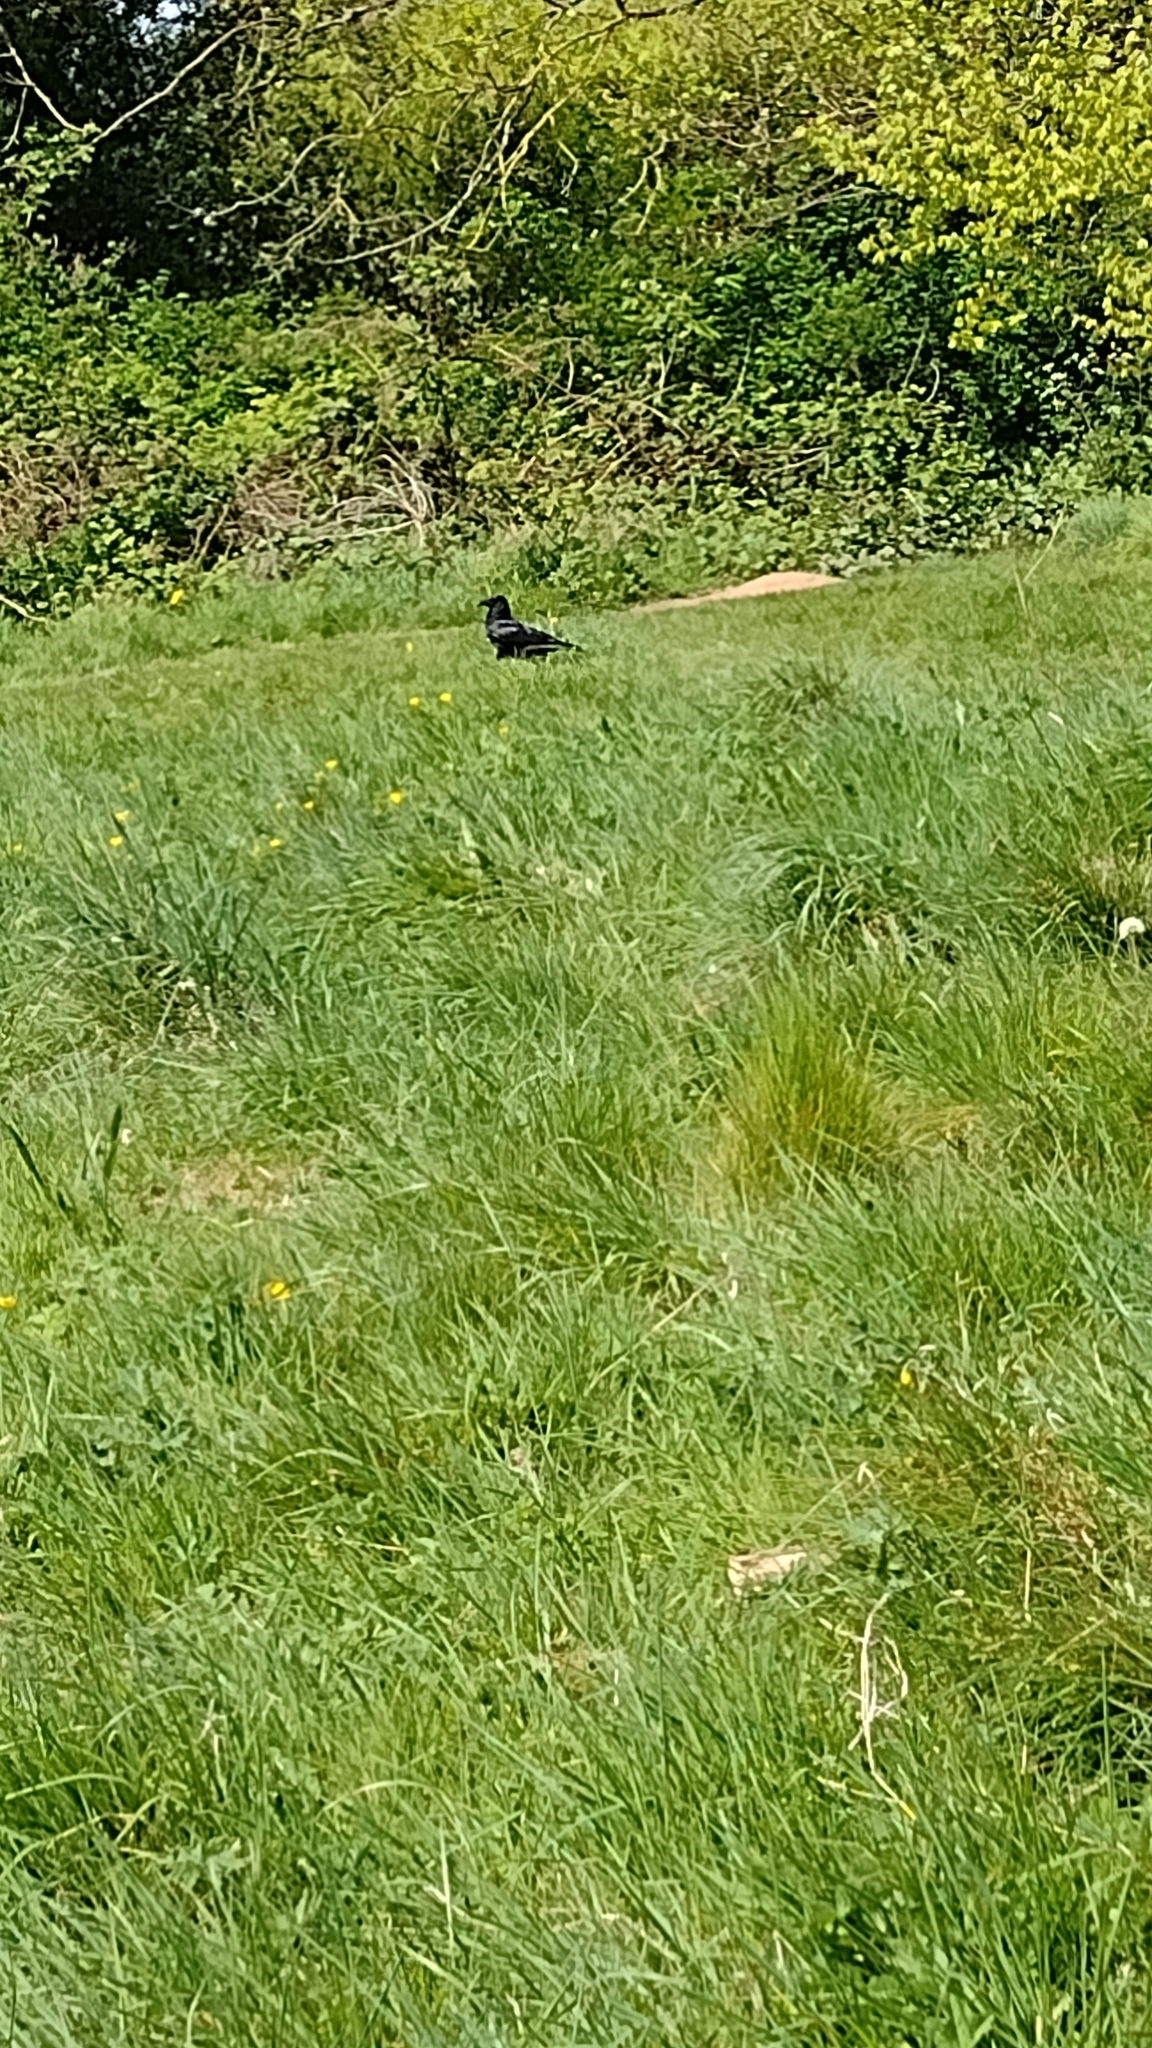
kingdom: Animalia
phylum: Chordata
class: Aves
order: Passeriformes
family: Corvidae
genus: Corvus
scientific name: Corvus corone
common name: Carrion crow
